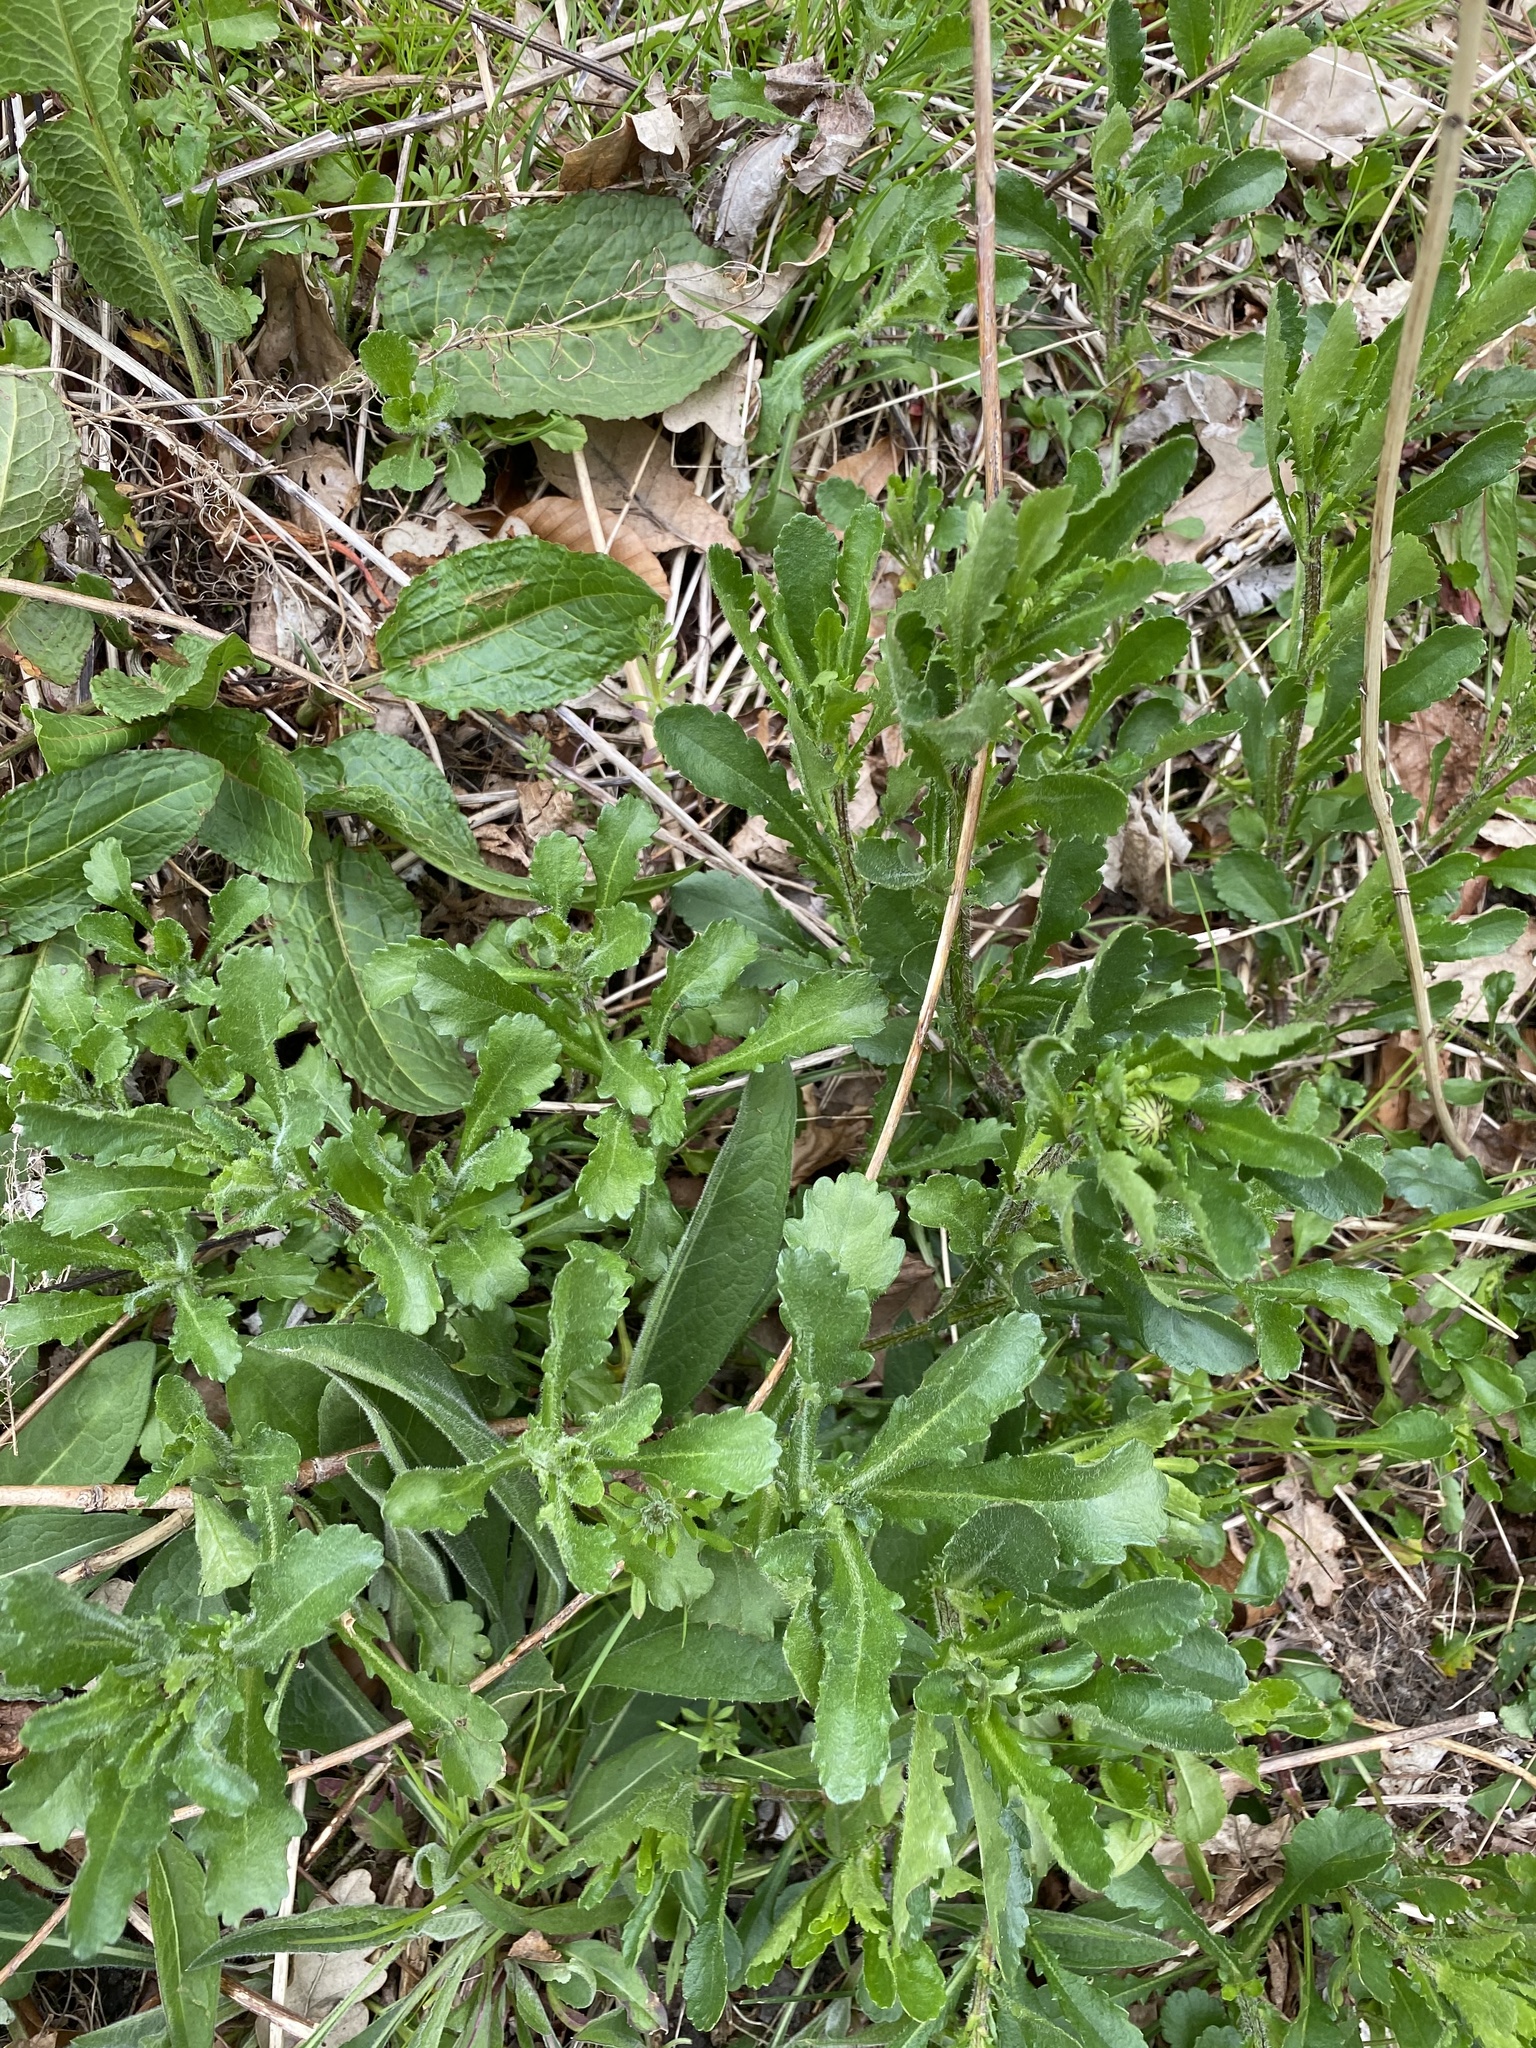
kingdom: Plantae
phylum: Tracheophyta
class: Magnoliopsida
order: Asterales
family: Asteraceae
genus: Leucanthemum
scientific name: Leucanthemum vulgare
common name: Oxeye daisy
